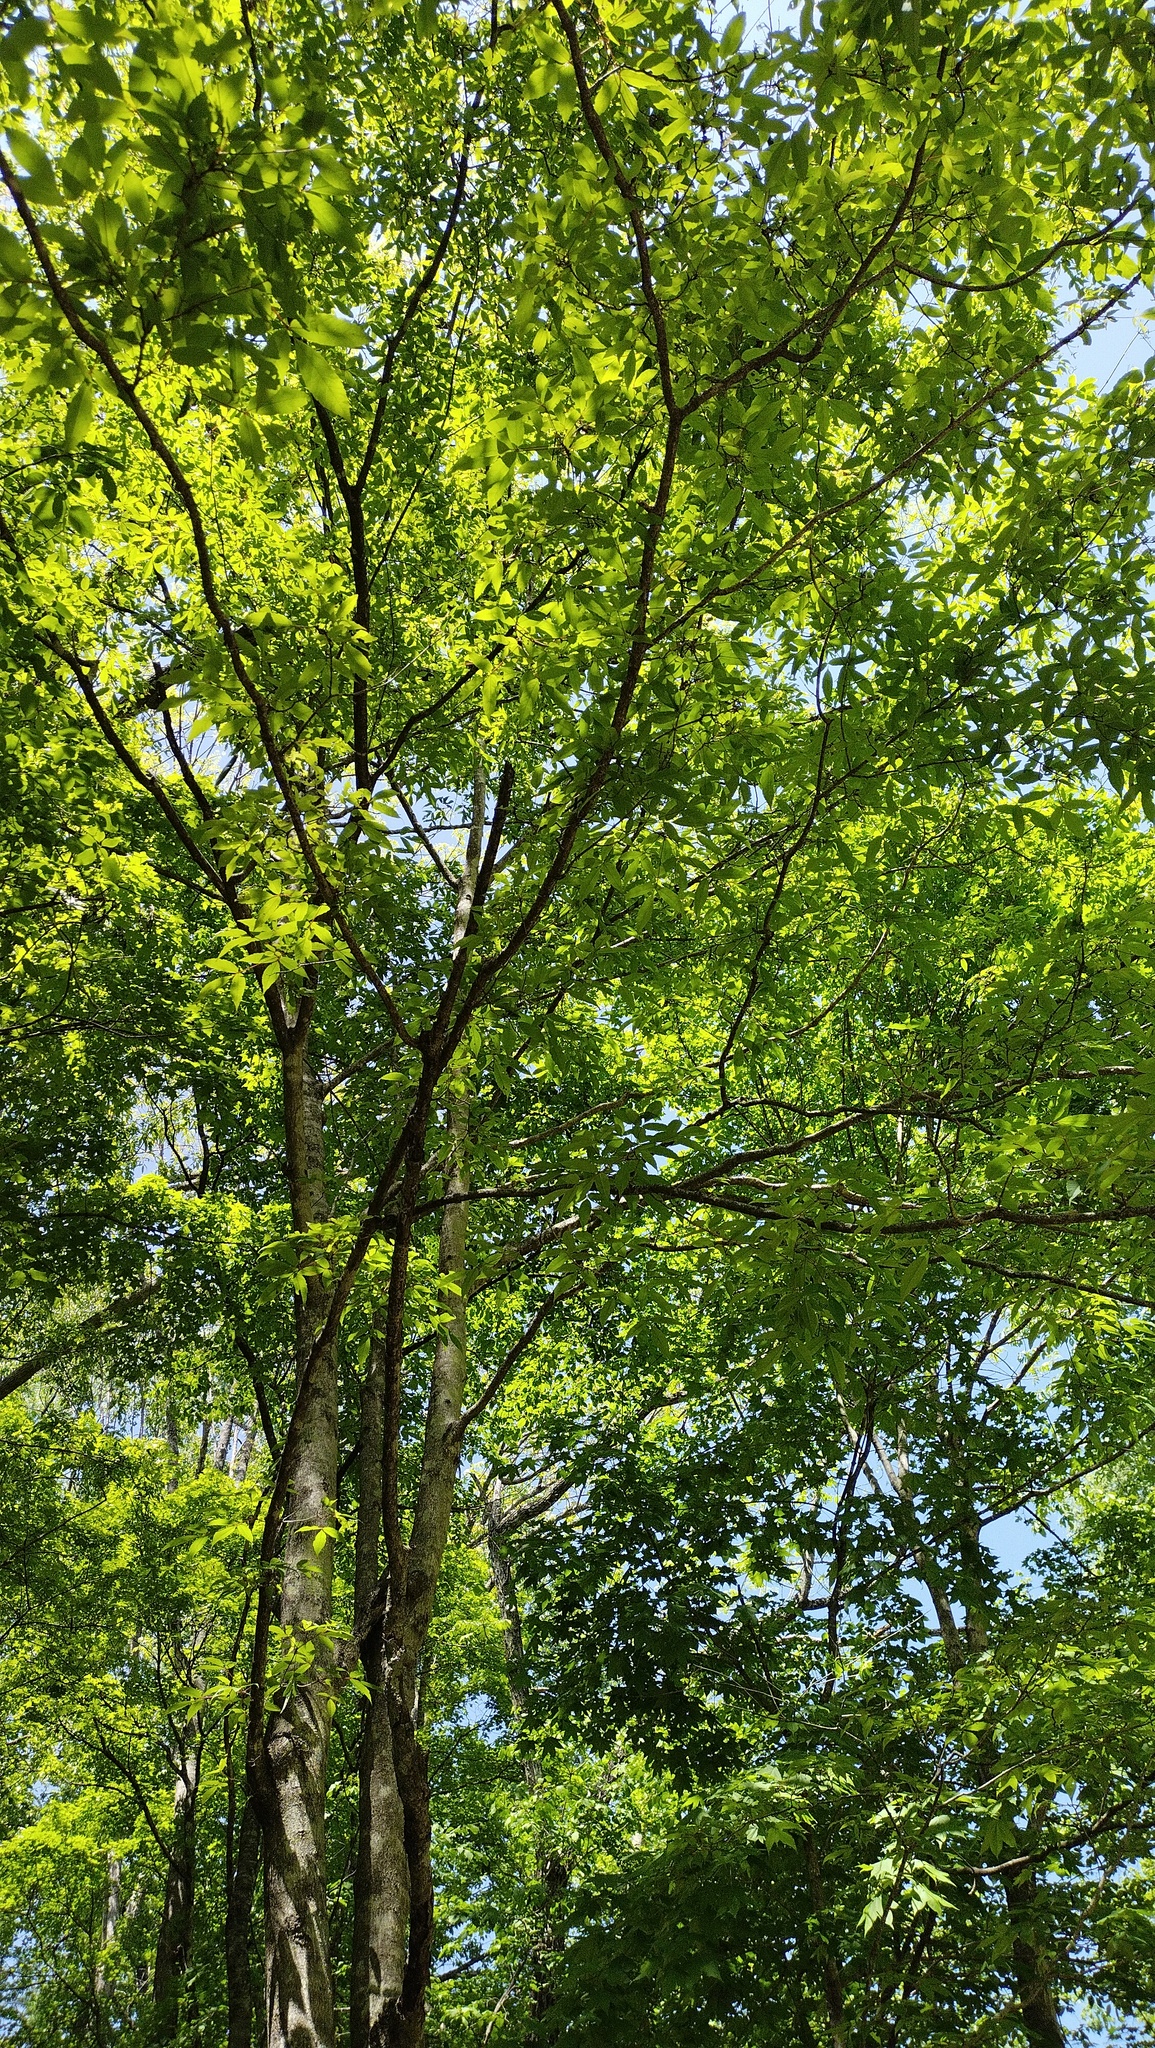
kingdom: Plantae
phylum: Tracheophyta
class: Magnoliopsida
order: Sapindales
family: Sapindaceae
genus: Acer
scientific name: Acer mandshuricum
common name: Manchurian maple
